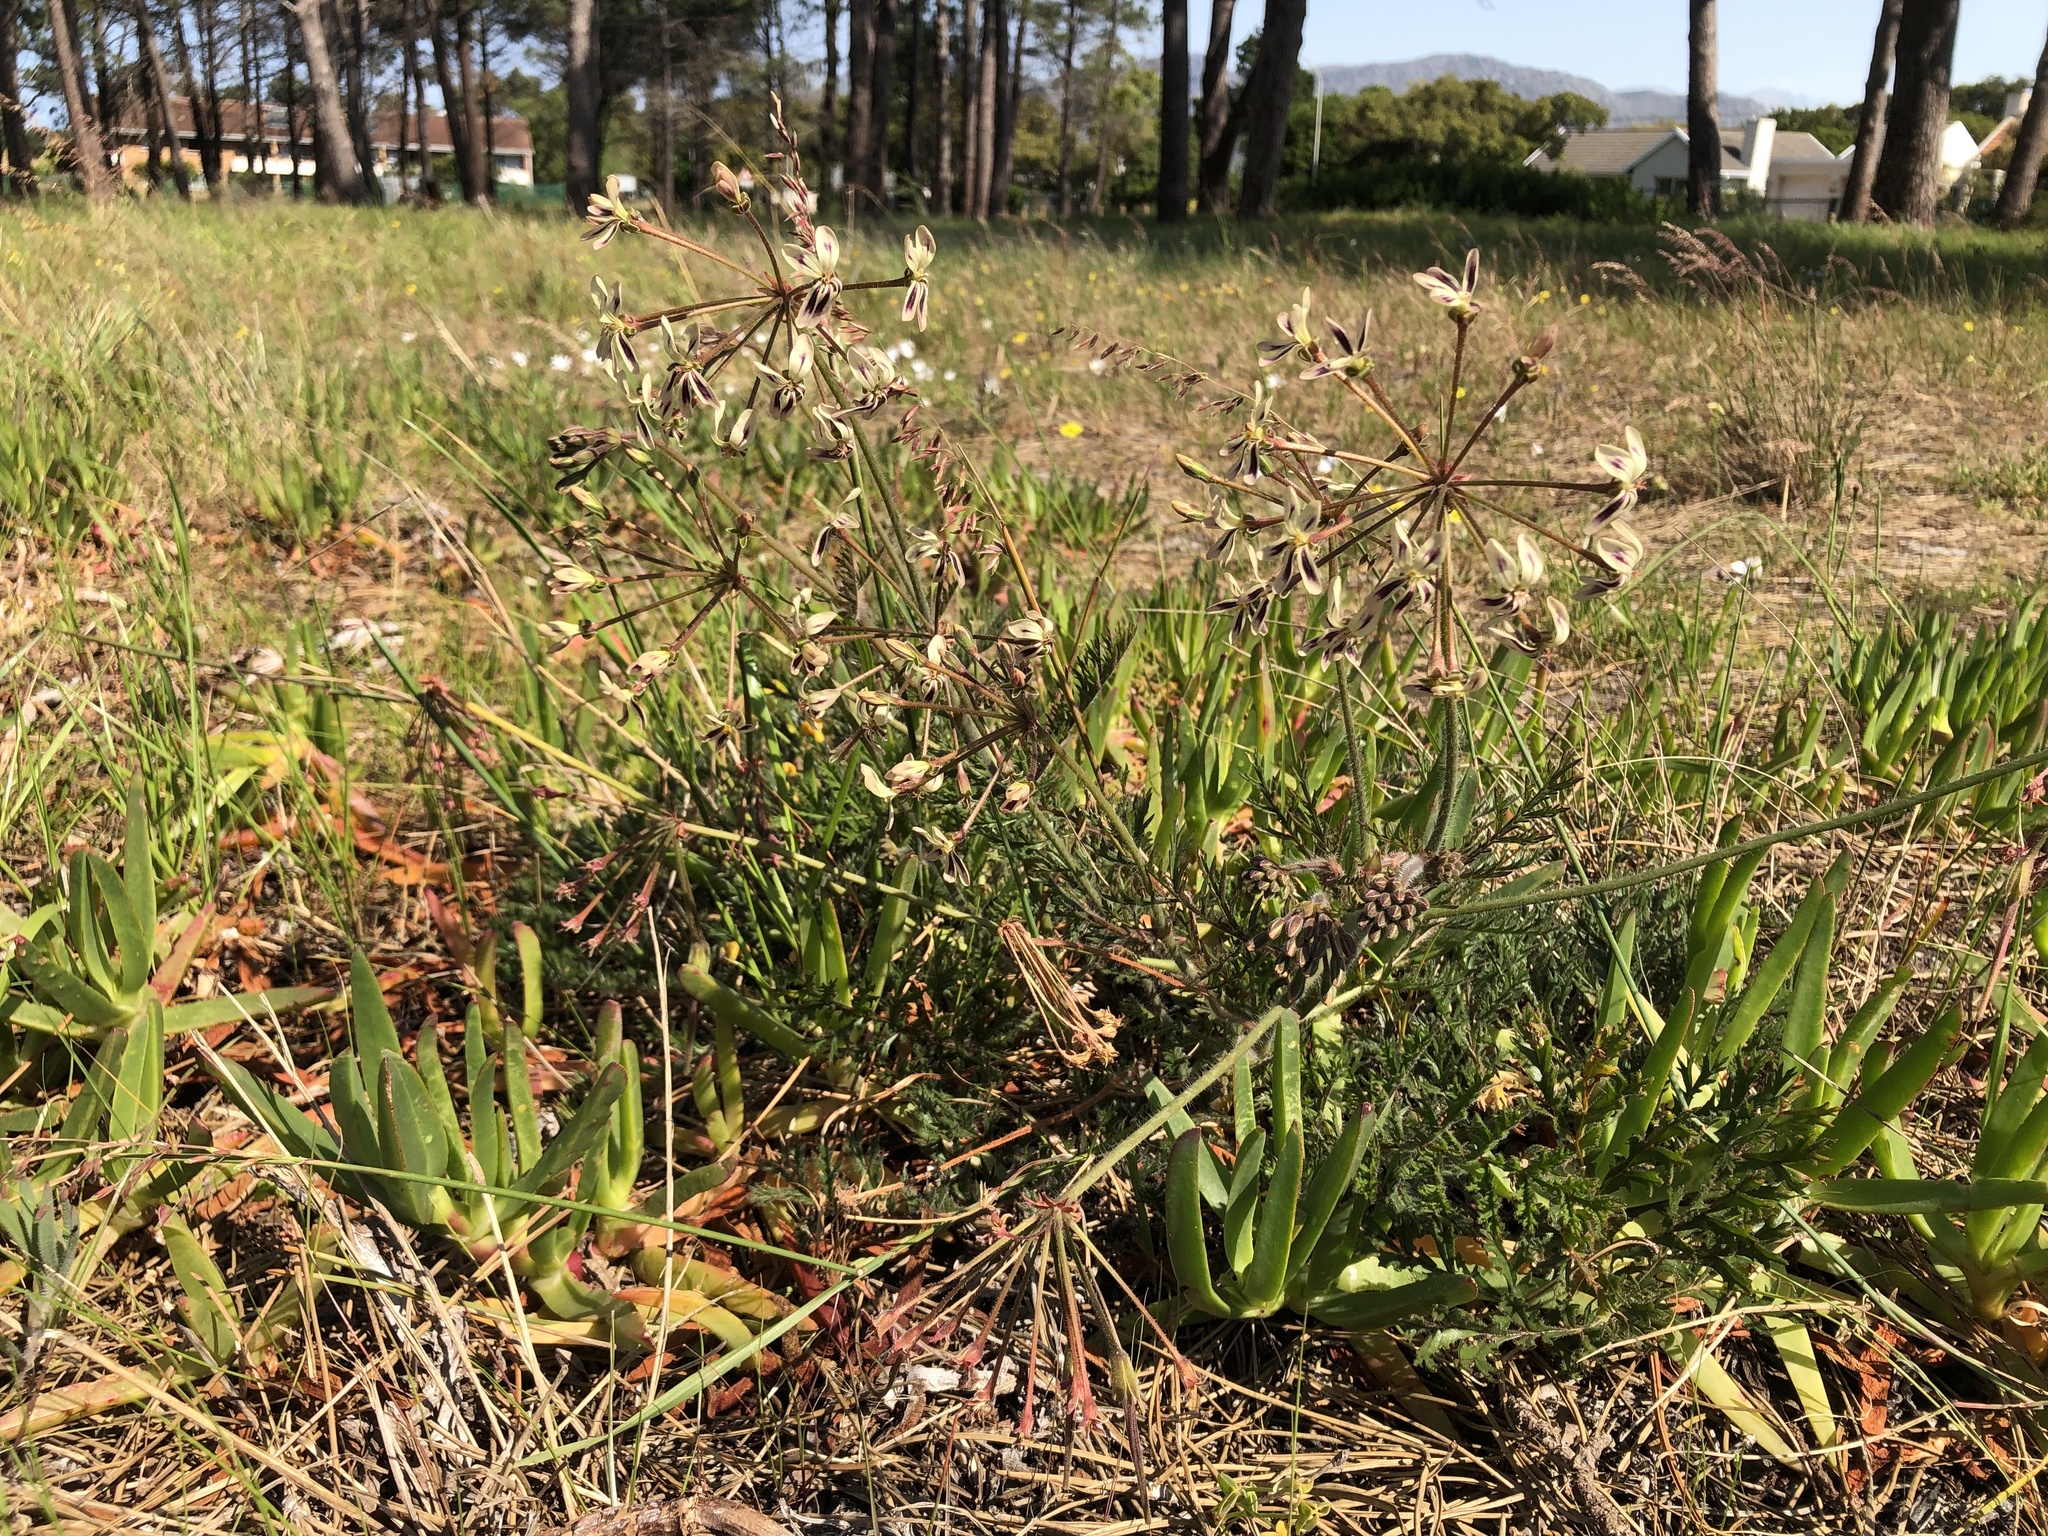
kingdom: Plantae
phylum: Tracheophyta
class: Magnoliopsida
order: Geraniales
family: Geraniaceae
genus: Pelargonium
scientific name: Pelargonium triste
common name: Night-scent pelargonium
